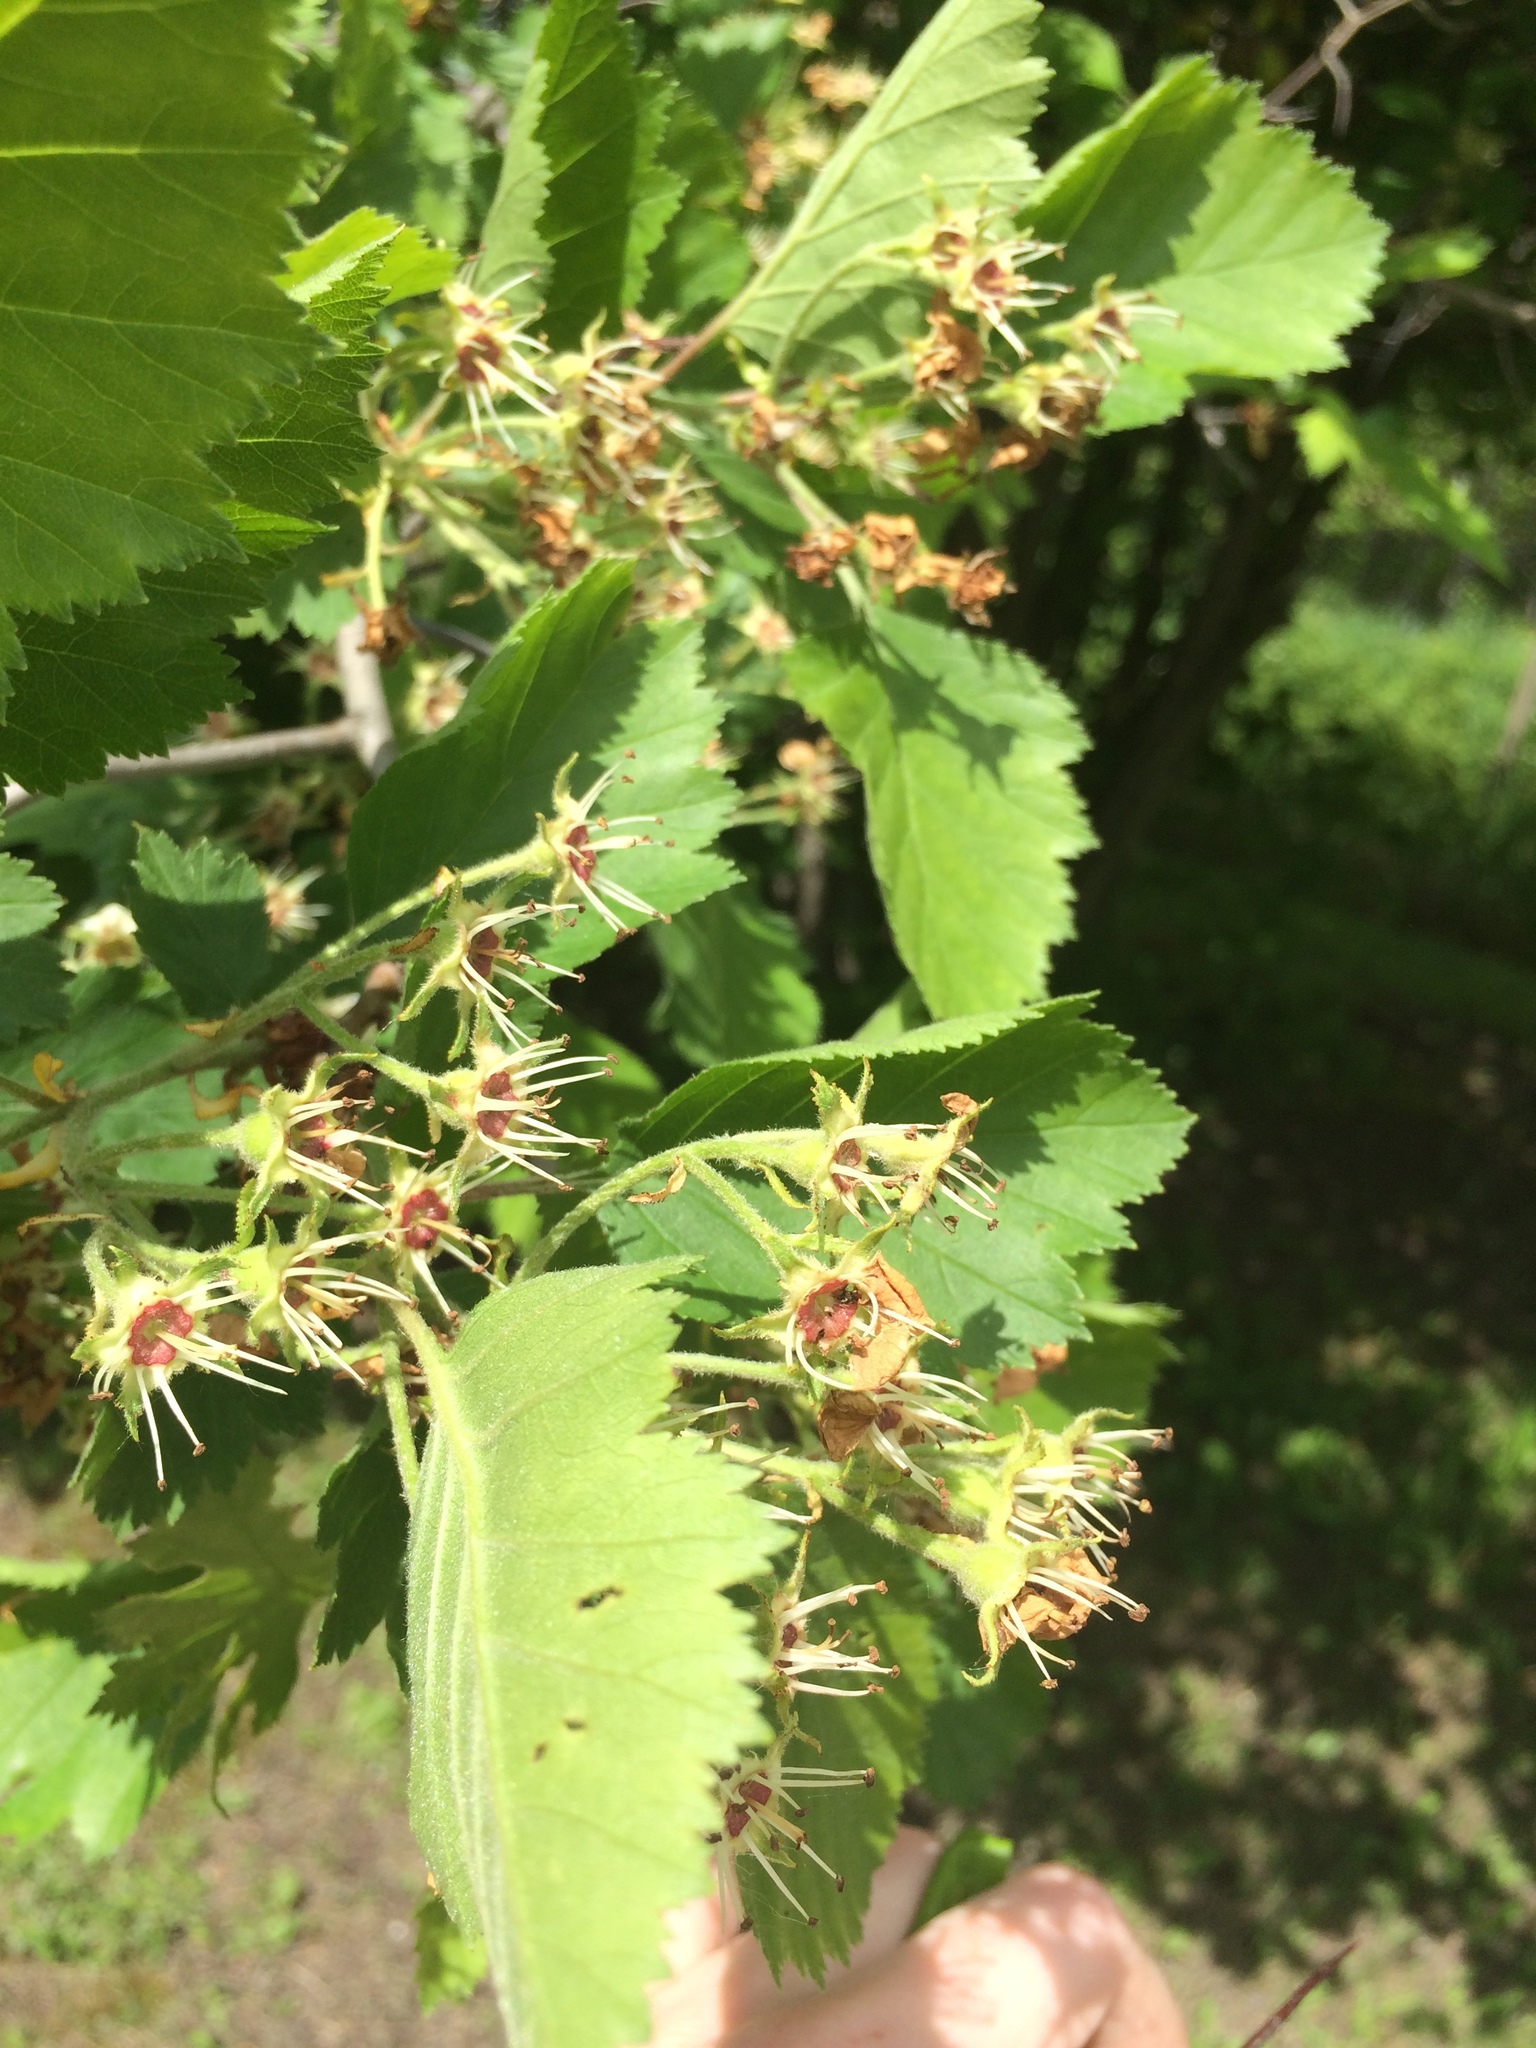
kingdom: Plantae
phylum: Tracheophyta
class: Magnoliopsida
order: Rosales
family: Rosaceae
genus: Crataegus
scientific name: Crataegus submollis
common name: Hairy cockspurthorn
